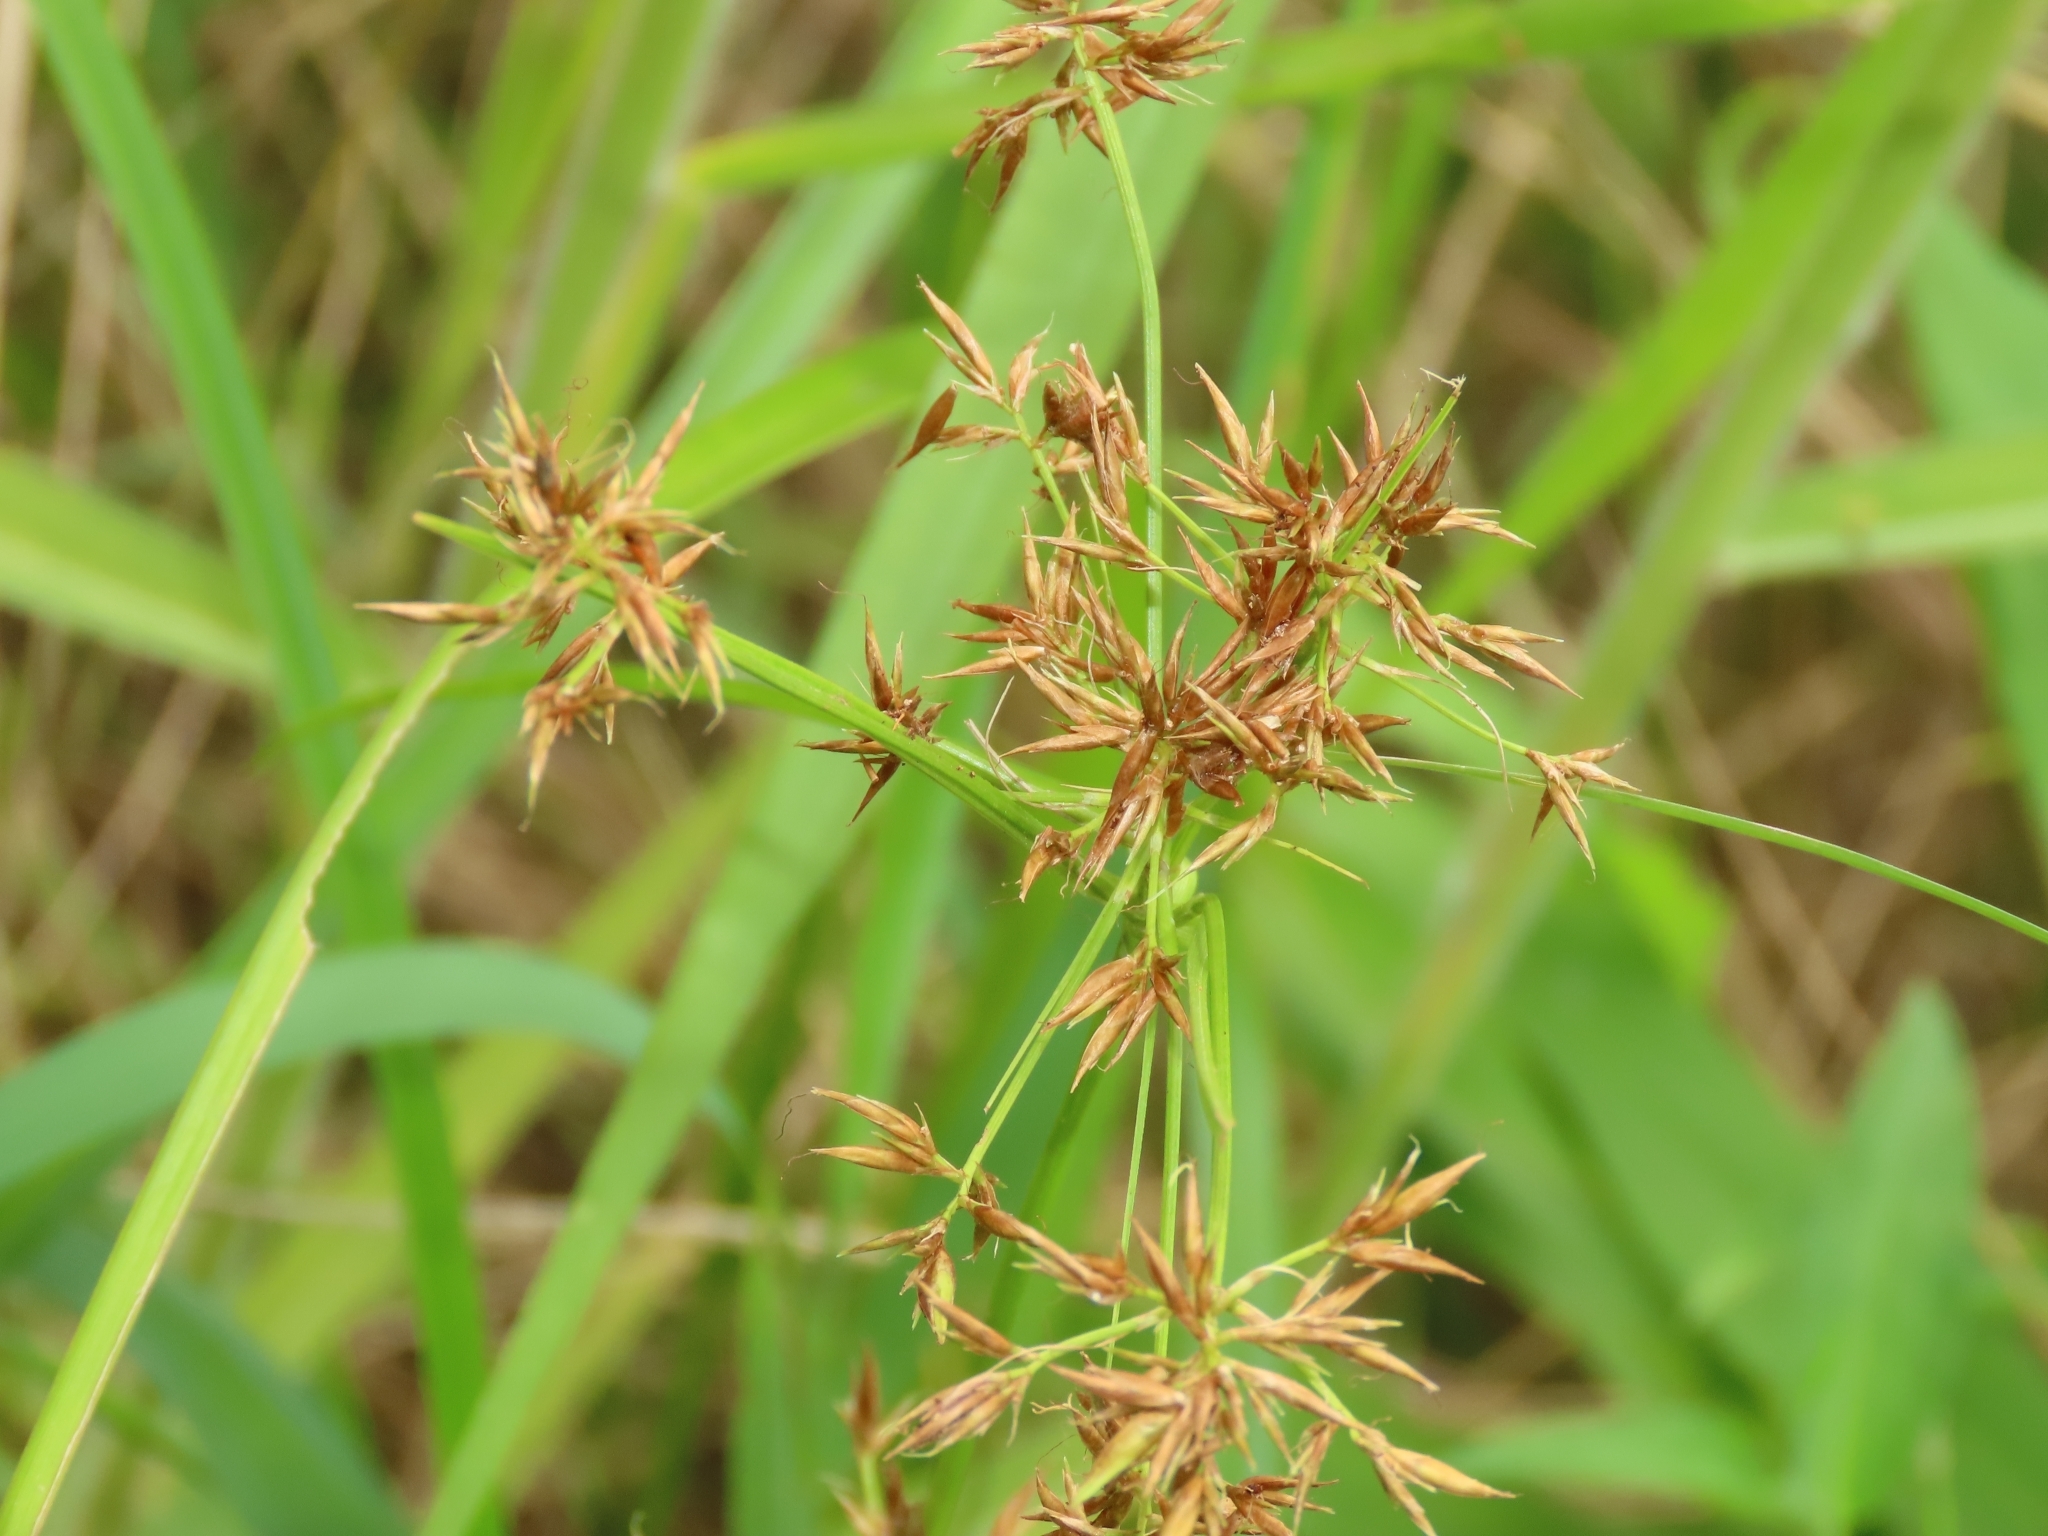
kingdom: Plantae
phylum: Tracheophyta
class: Liliopsida
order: Poales
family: Cyperaceae
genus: Rhynchospora
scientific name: Rhynchospora corymbosa
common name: Golden beak sedge
